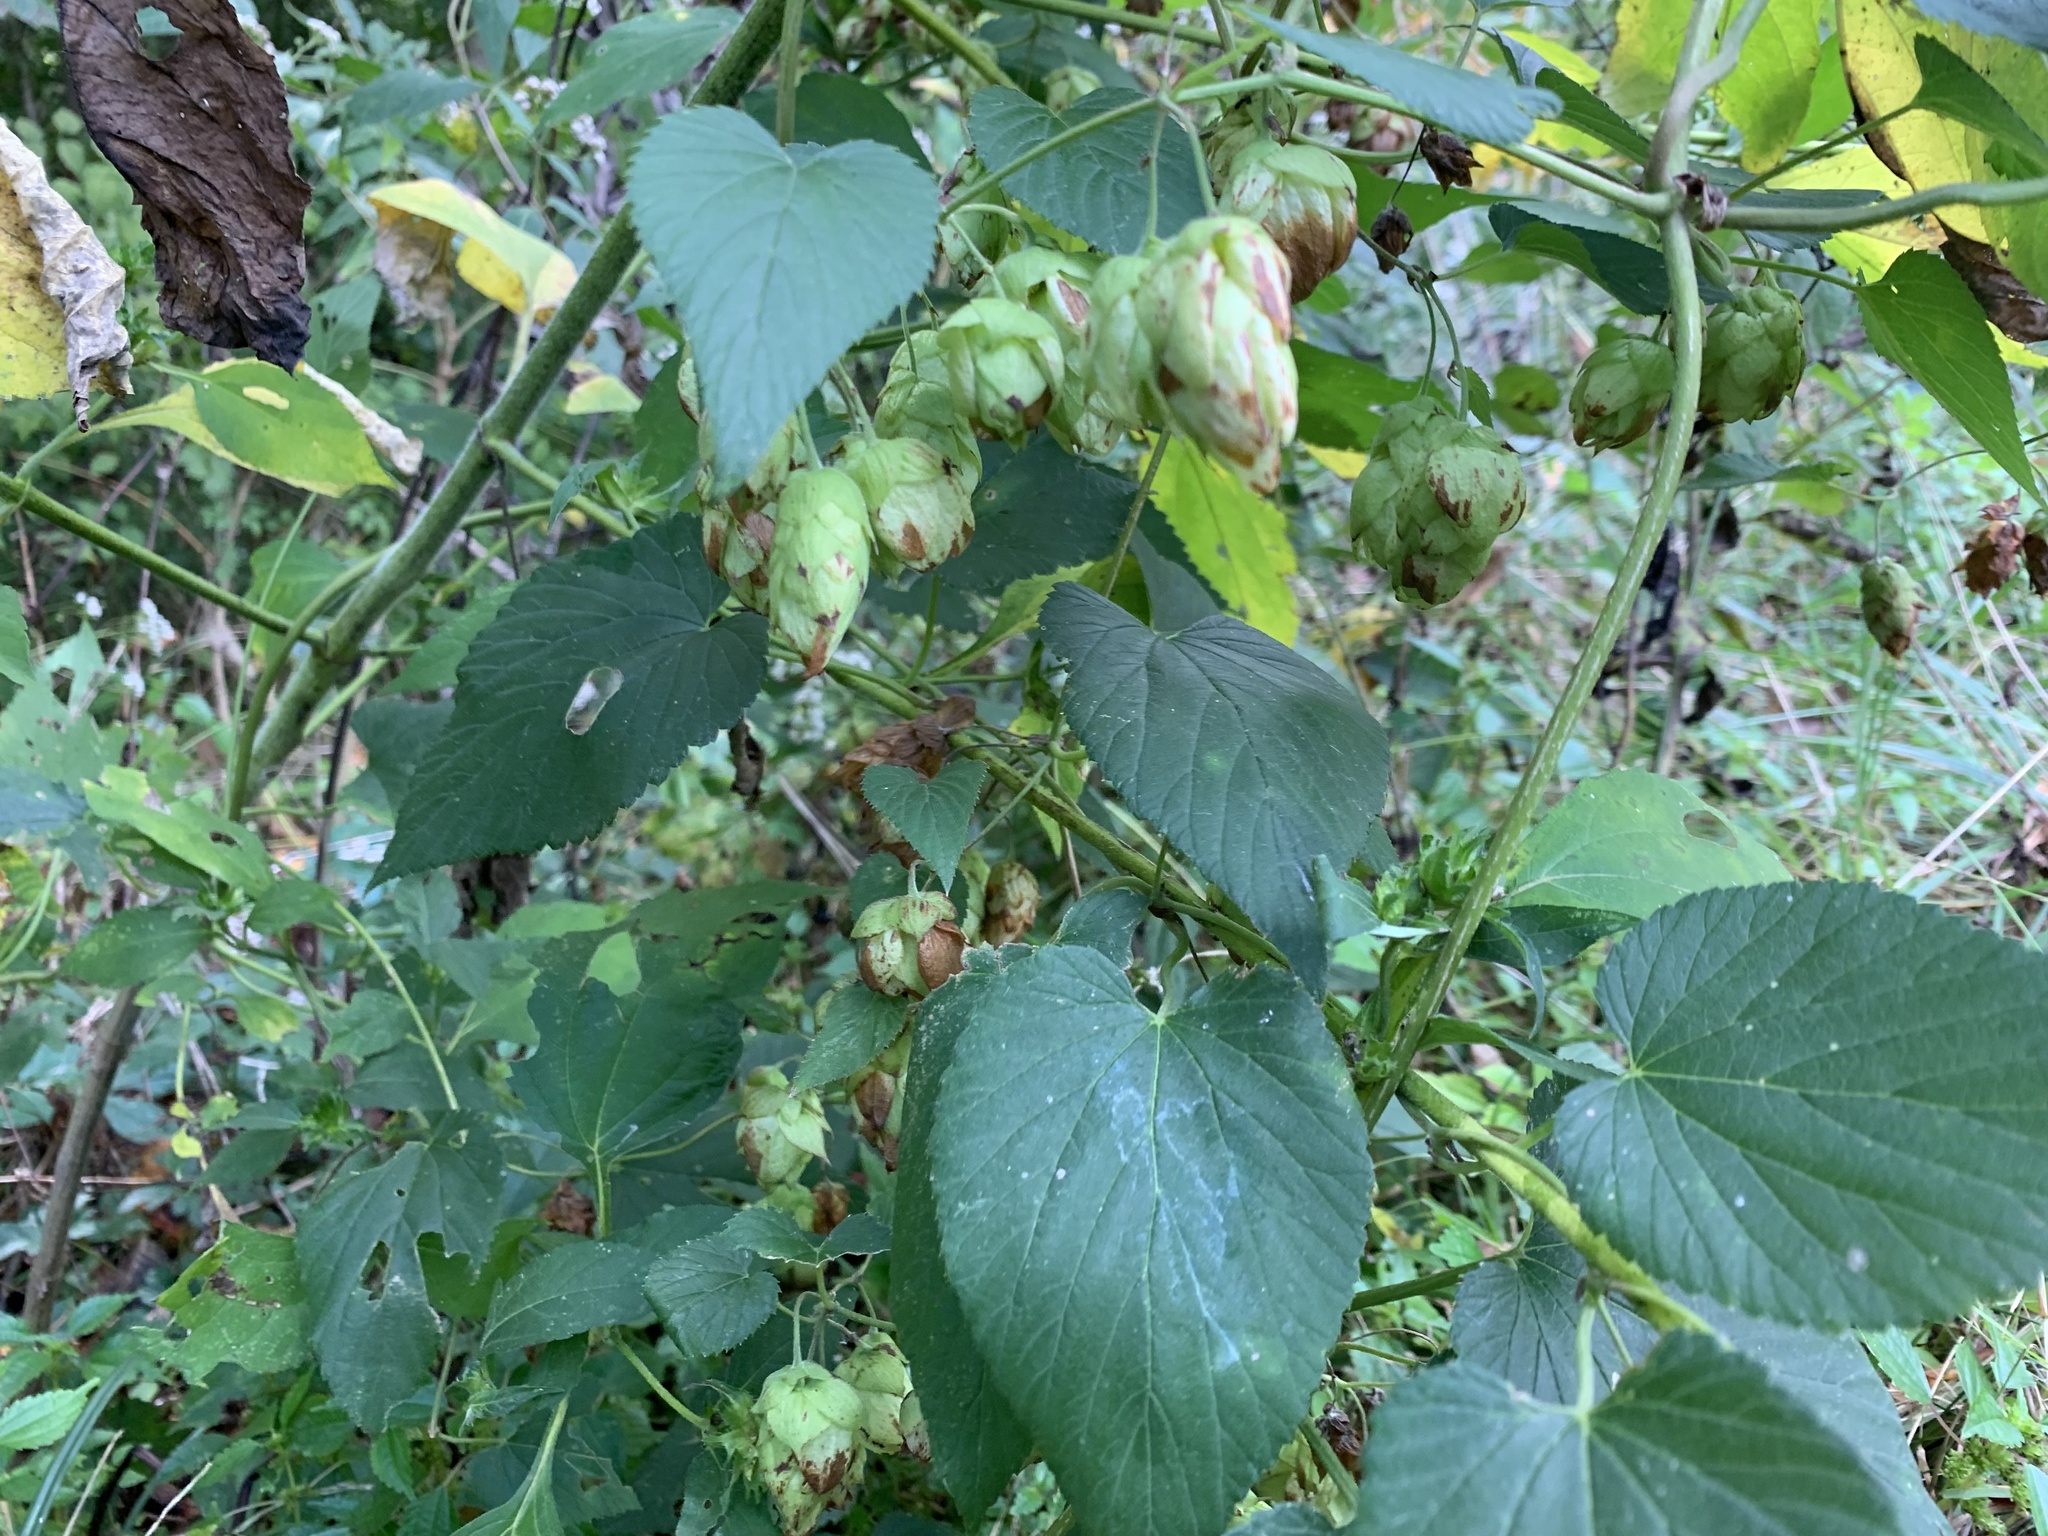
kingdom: Plantae
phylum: Tracheophyta
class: Magnoliopsida
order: Rosales
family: Cannabaceae
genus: Humulus
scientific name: Humulus lupulus
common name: Hop
